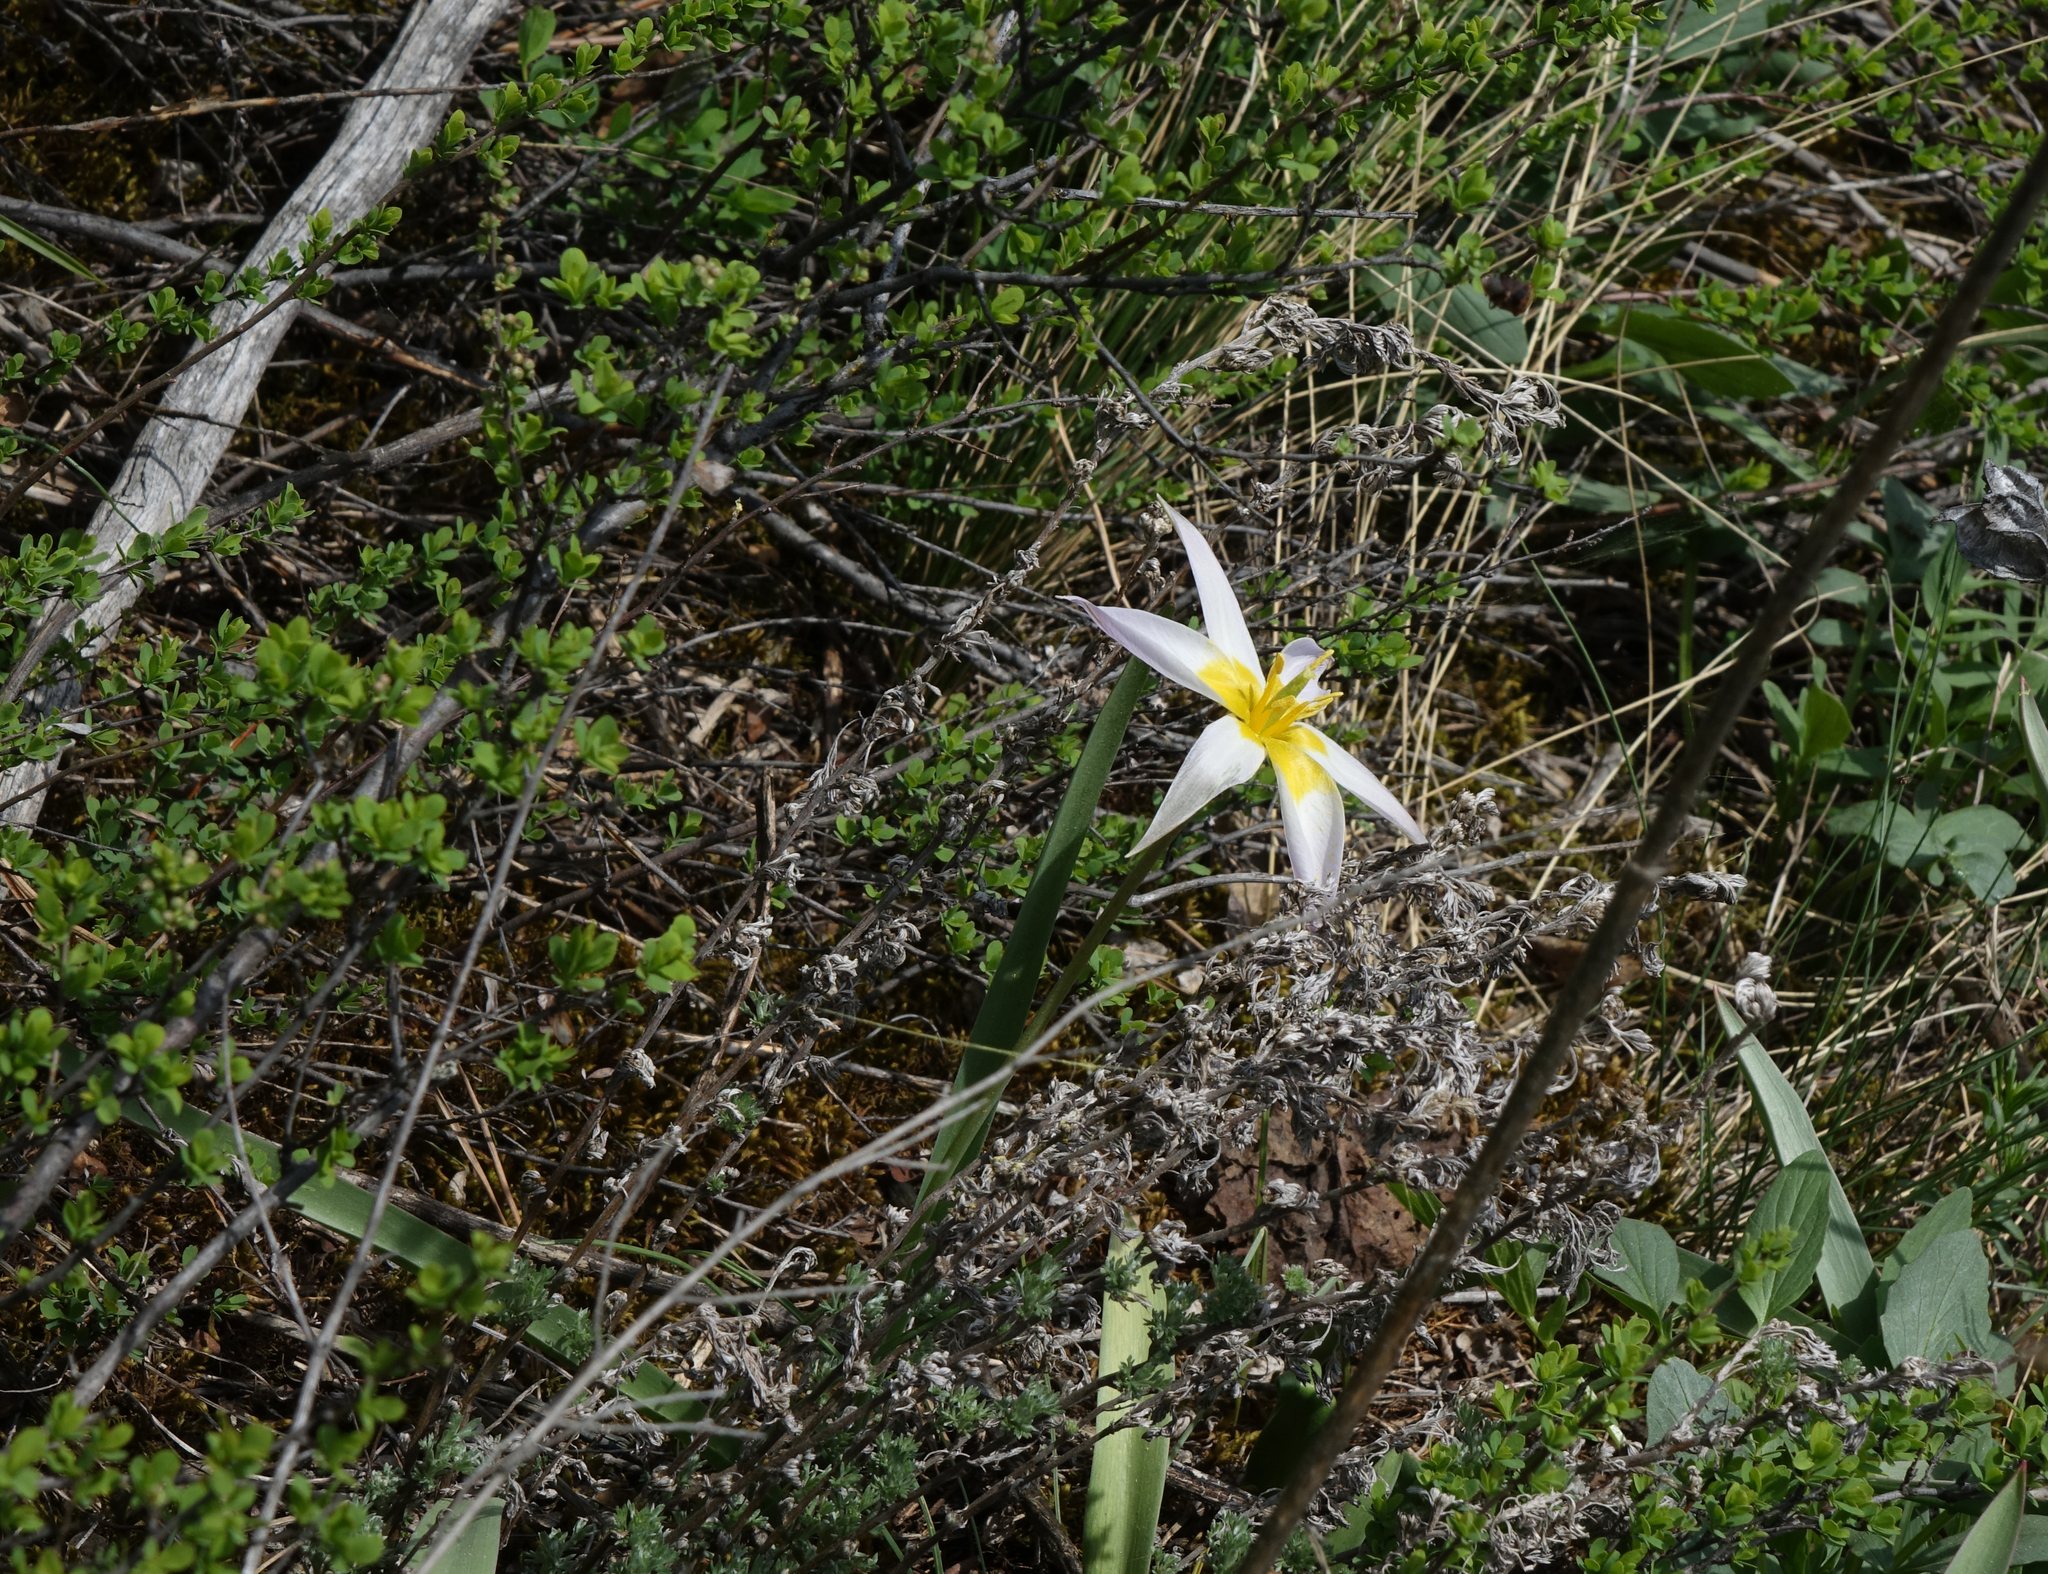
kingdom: Plantae
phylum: Tracheophyta
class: Liliopsida
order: Liliales
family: Liliaceae
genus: Tulipa
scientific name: Tulipa patens
